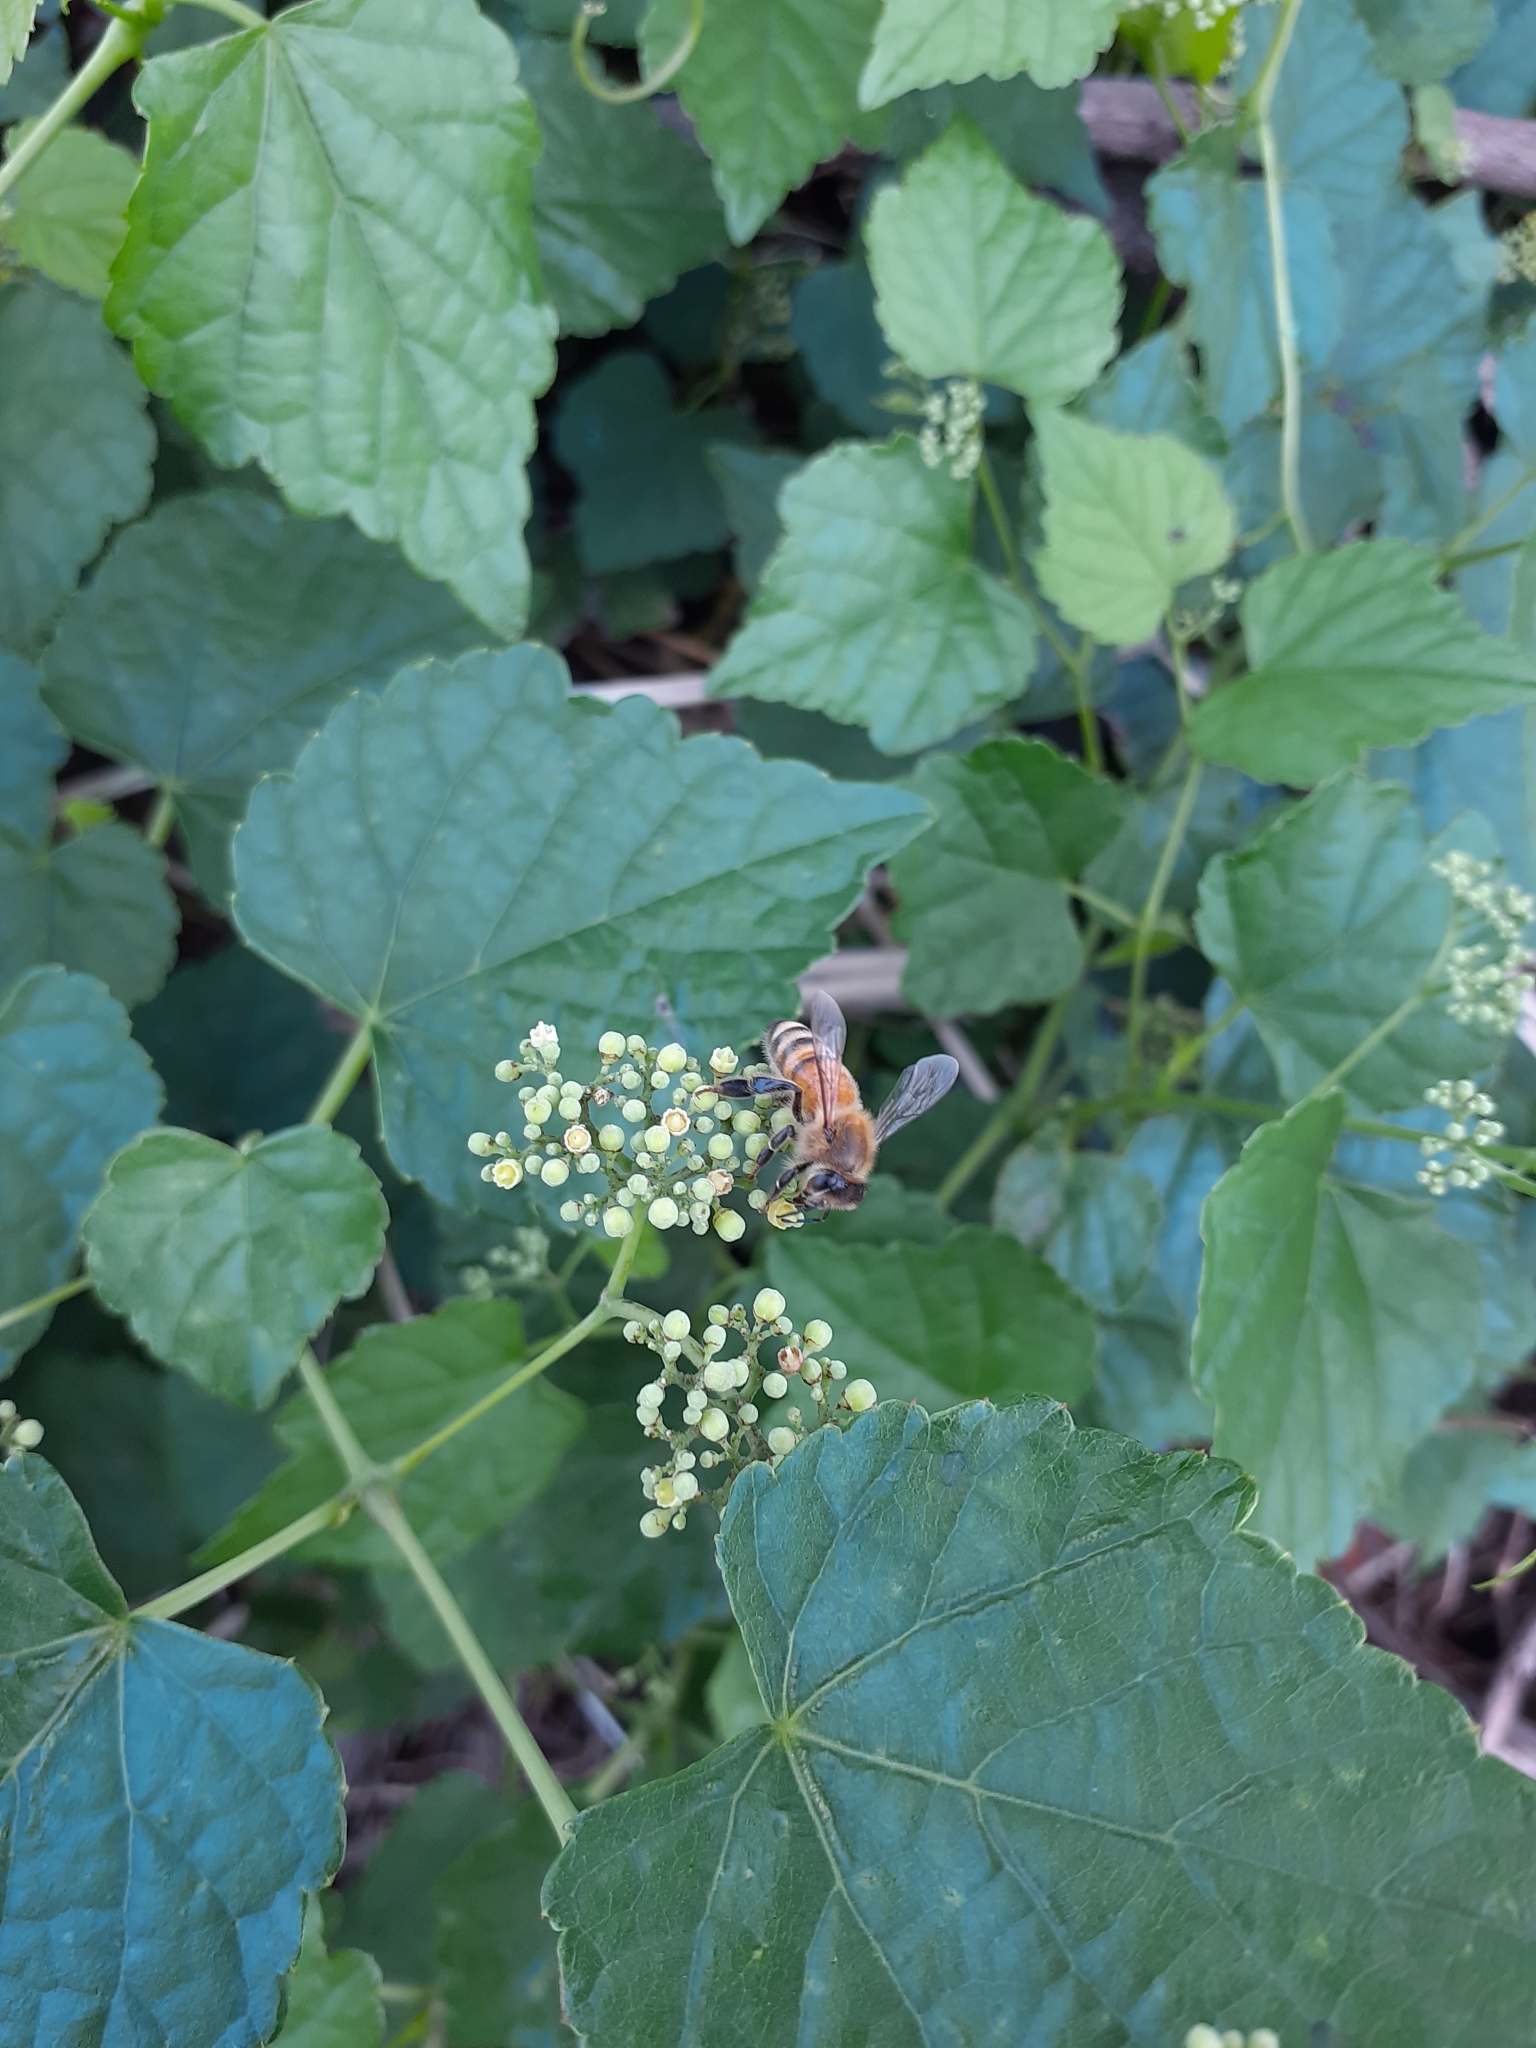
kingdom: Animalia
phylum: Arthropoda
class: Insecta
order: Hymenoptera
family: Apidae
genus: Apis
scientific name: Apis mellifera
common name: Honey bee
